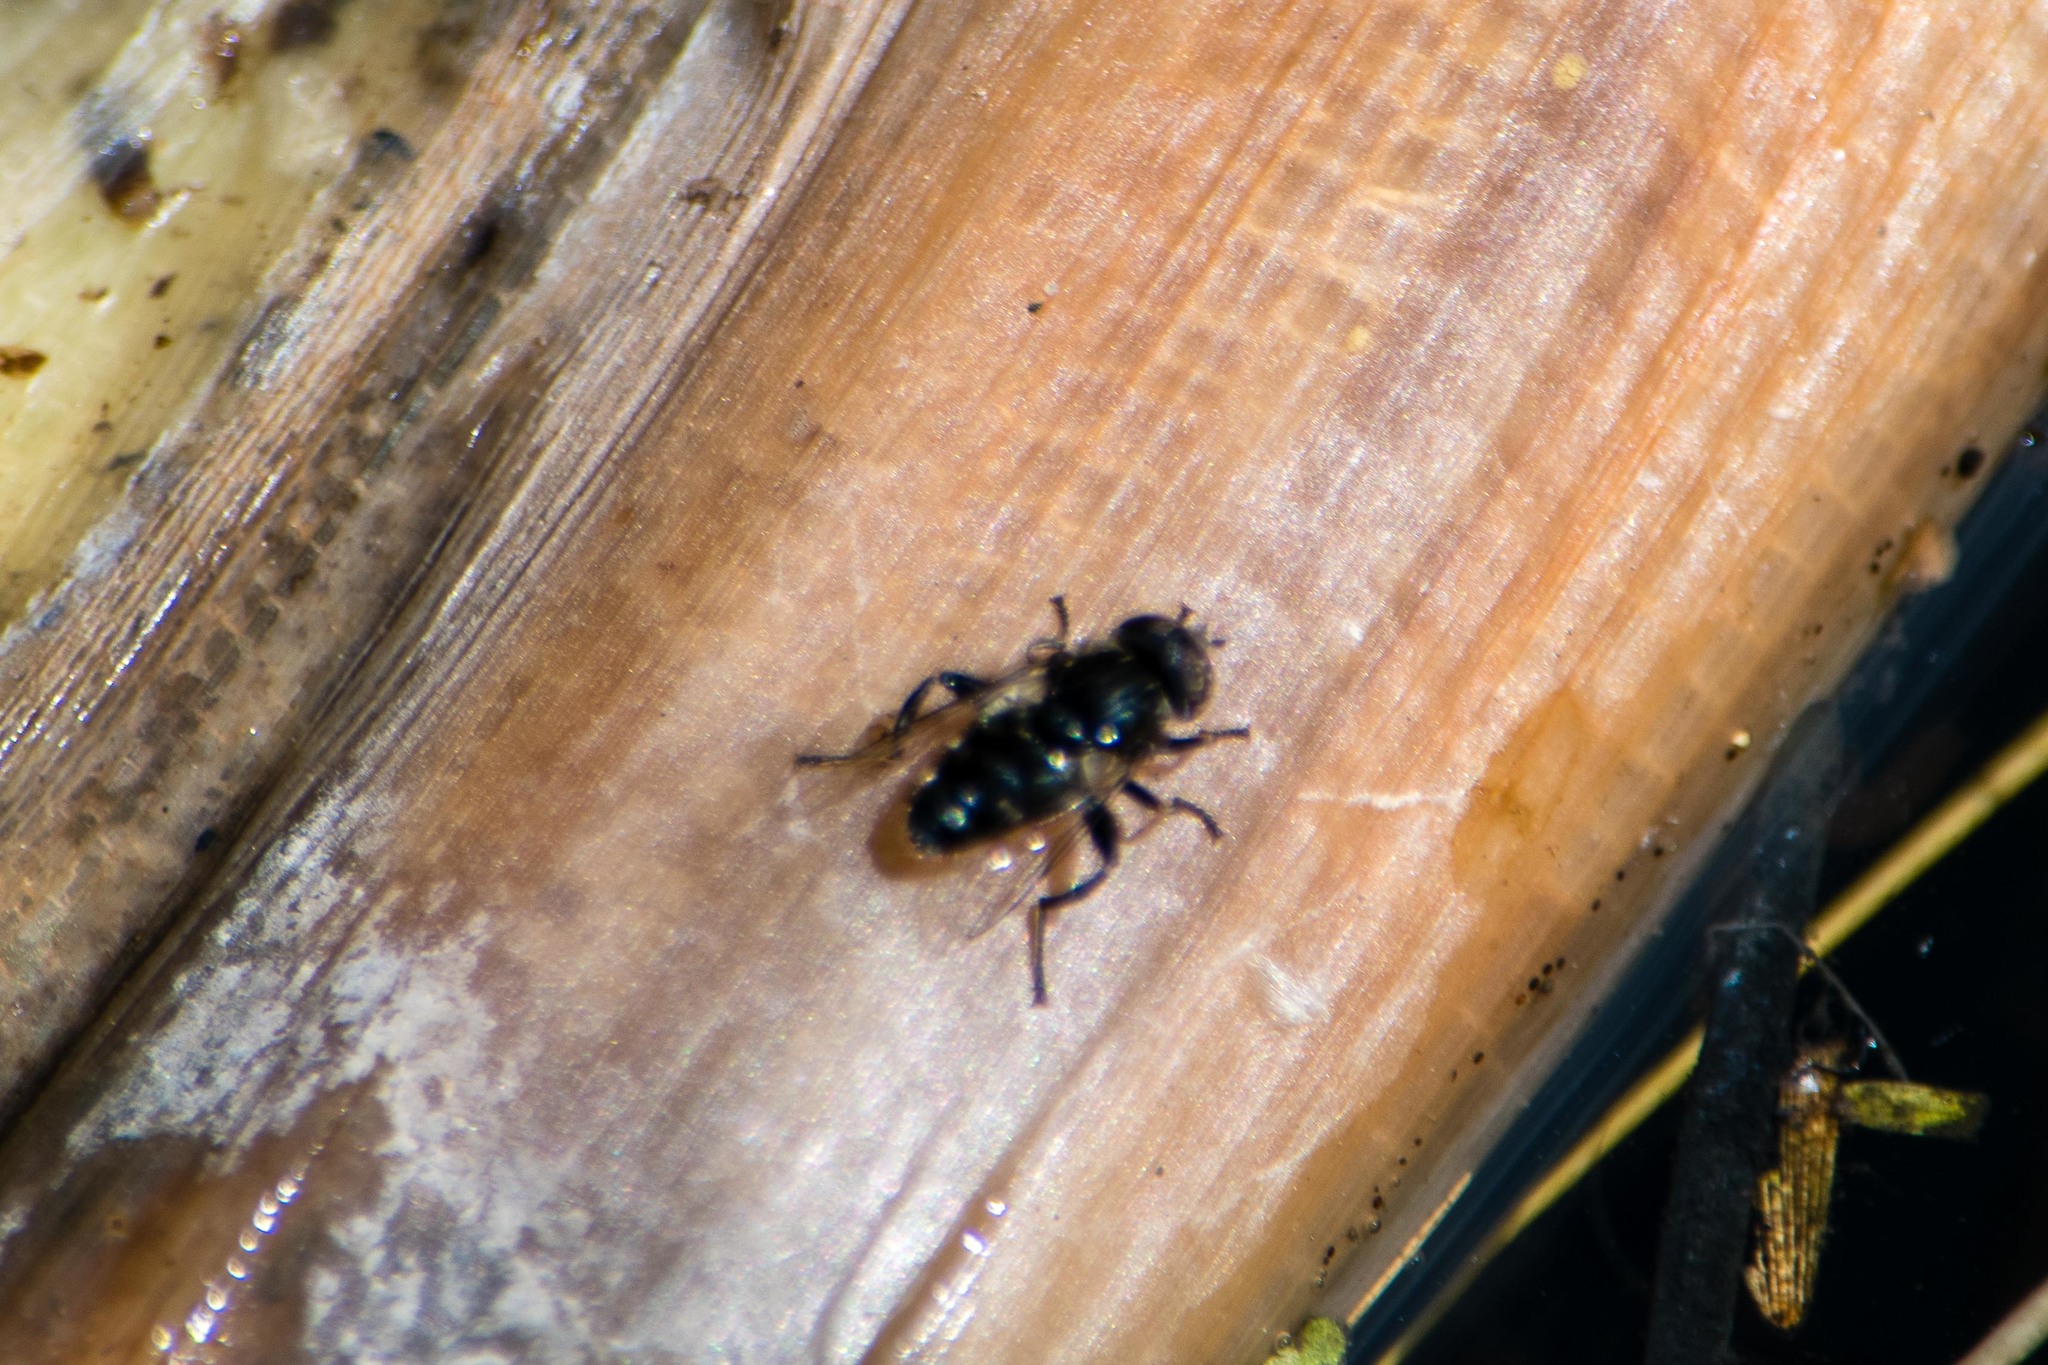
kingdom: Animalia
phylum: Arthropoda
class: Insecta
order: Diptera
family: Syrphidae
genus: Eristalinus
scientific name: Eristalinus sepulchralis
